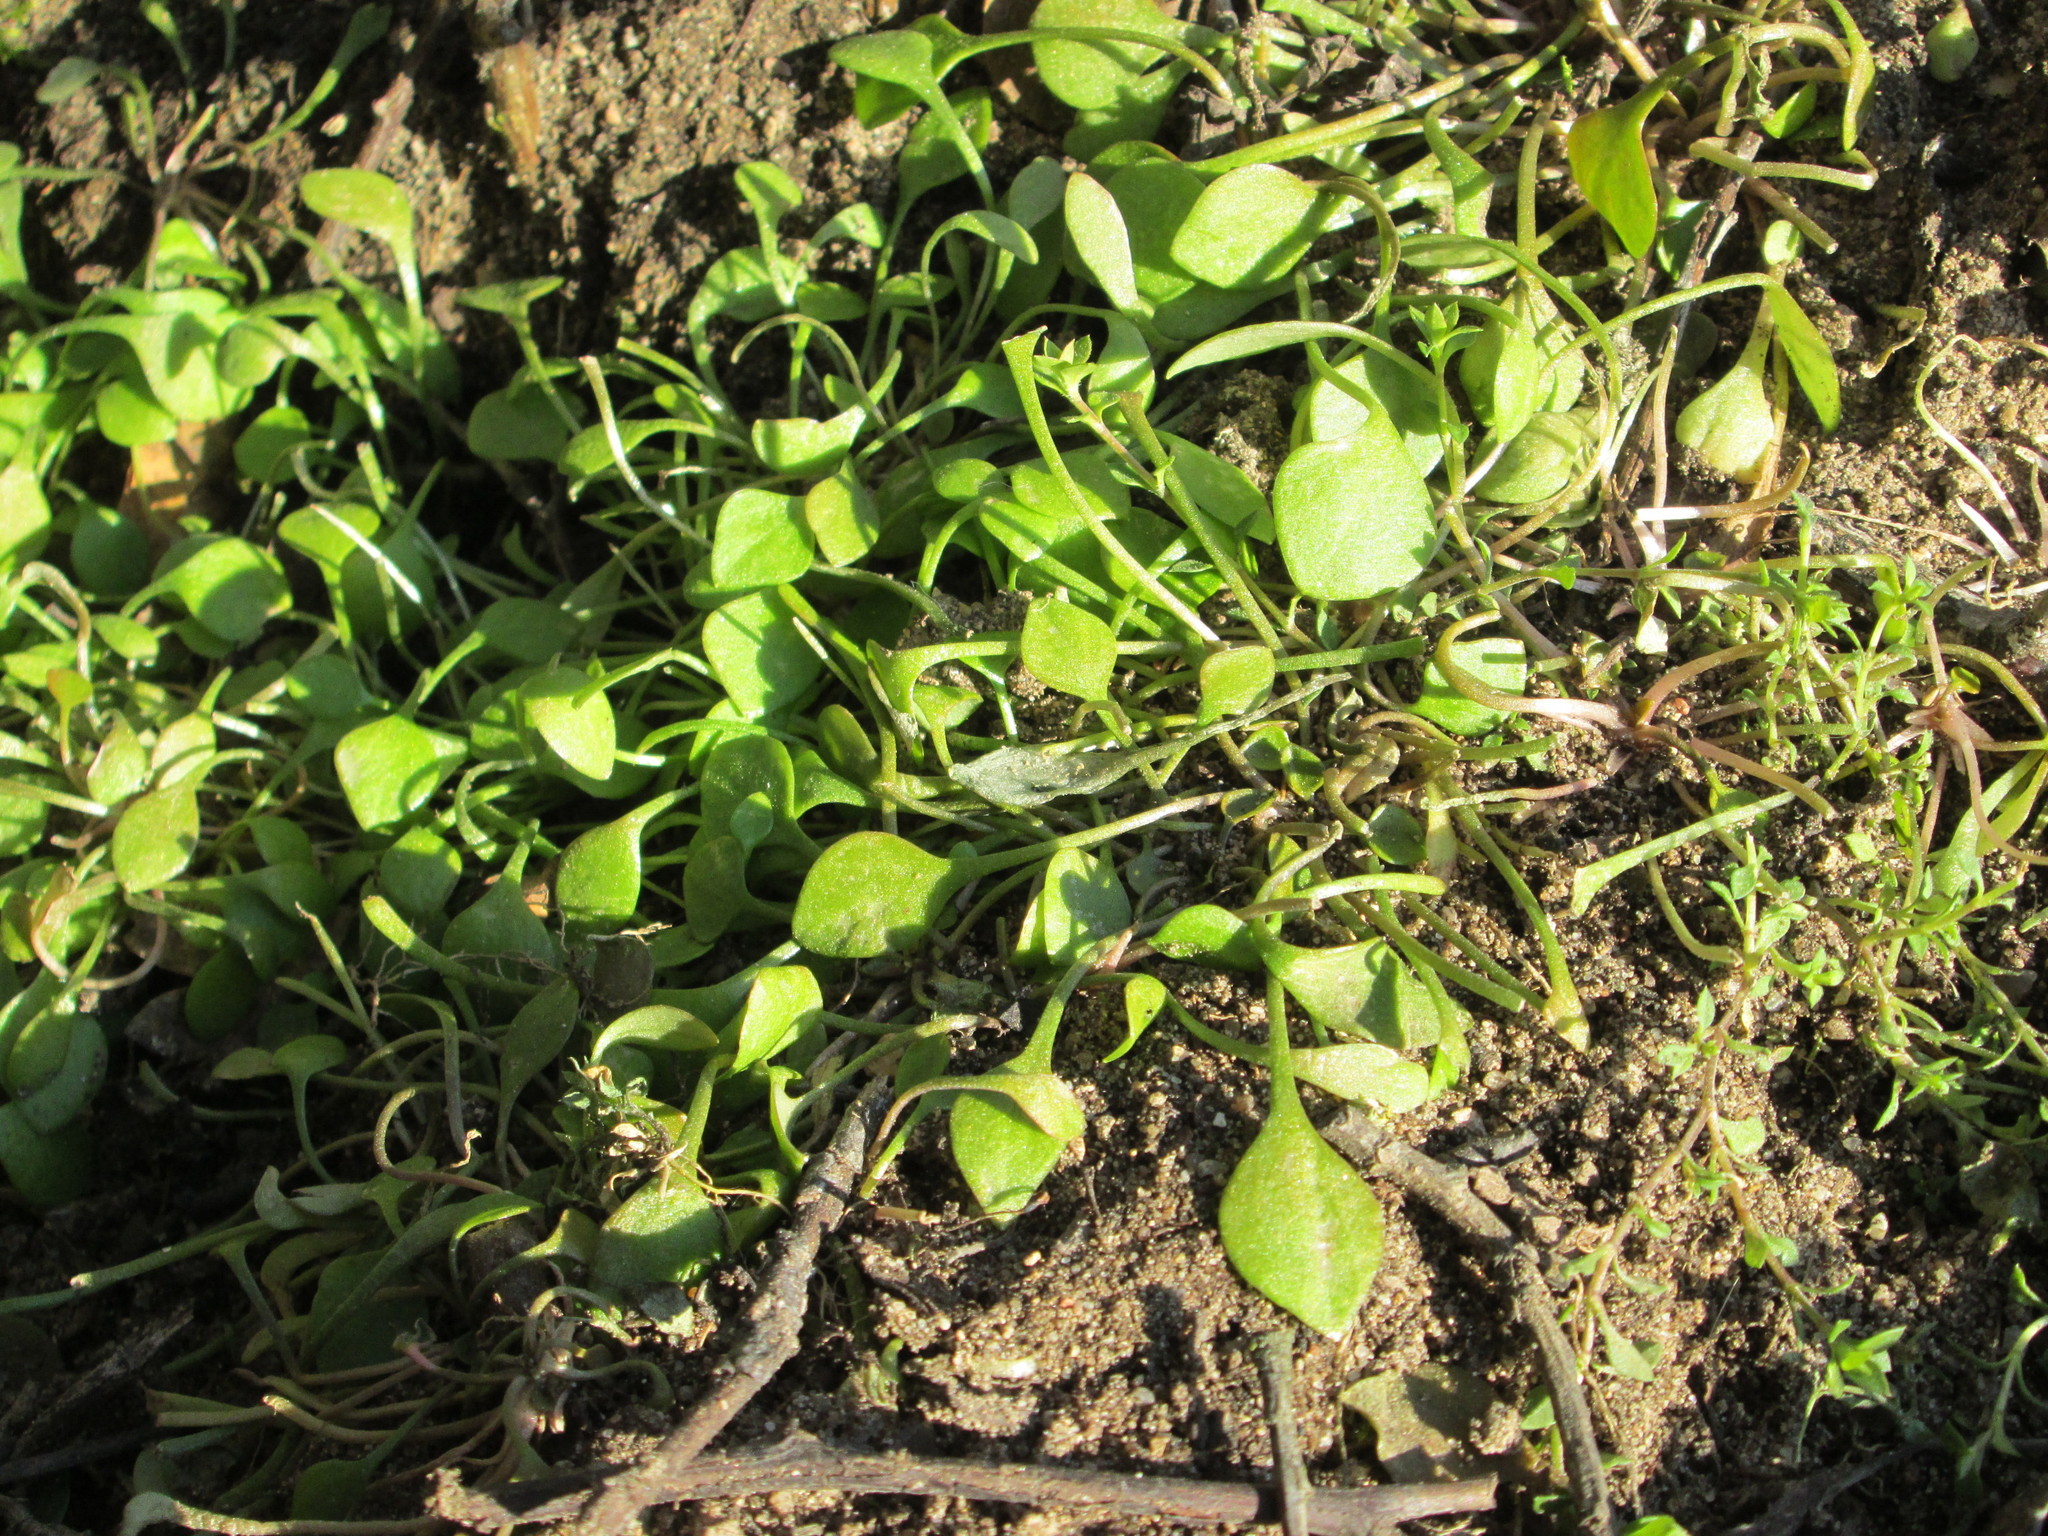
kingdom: Plantae
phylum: Tracheophyta
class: Magnoliopsida
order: Caryophyllales
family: Montiaceae
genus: Claytonia
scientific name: Claytonia perfoliata
